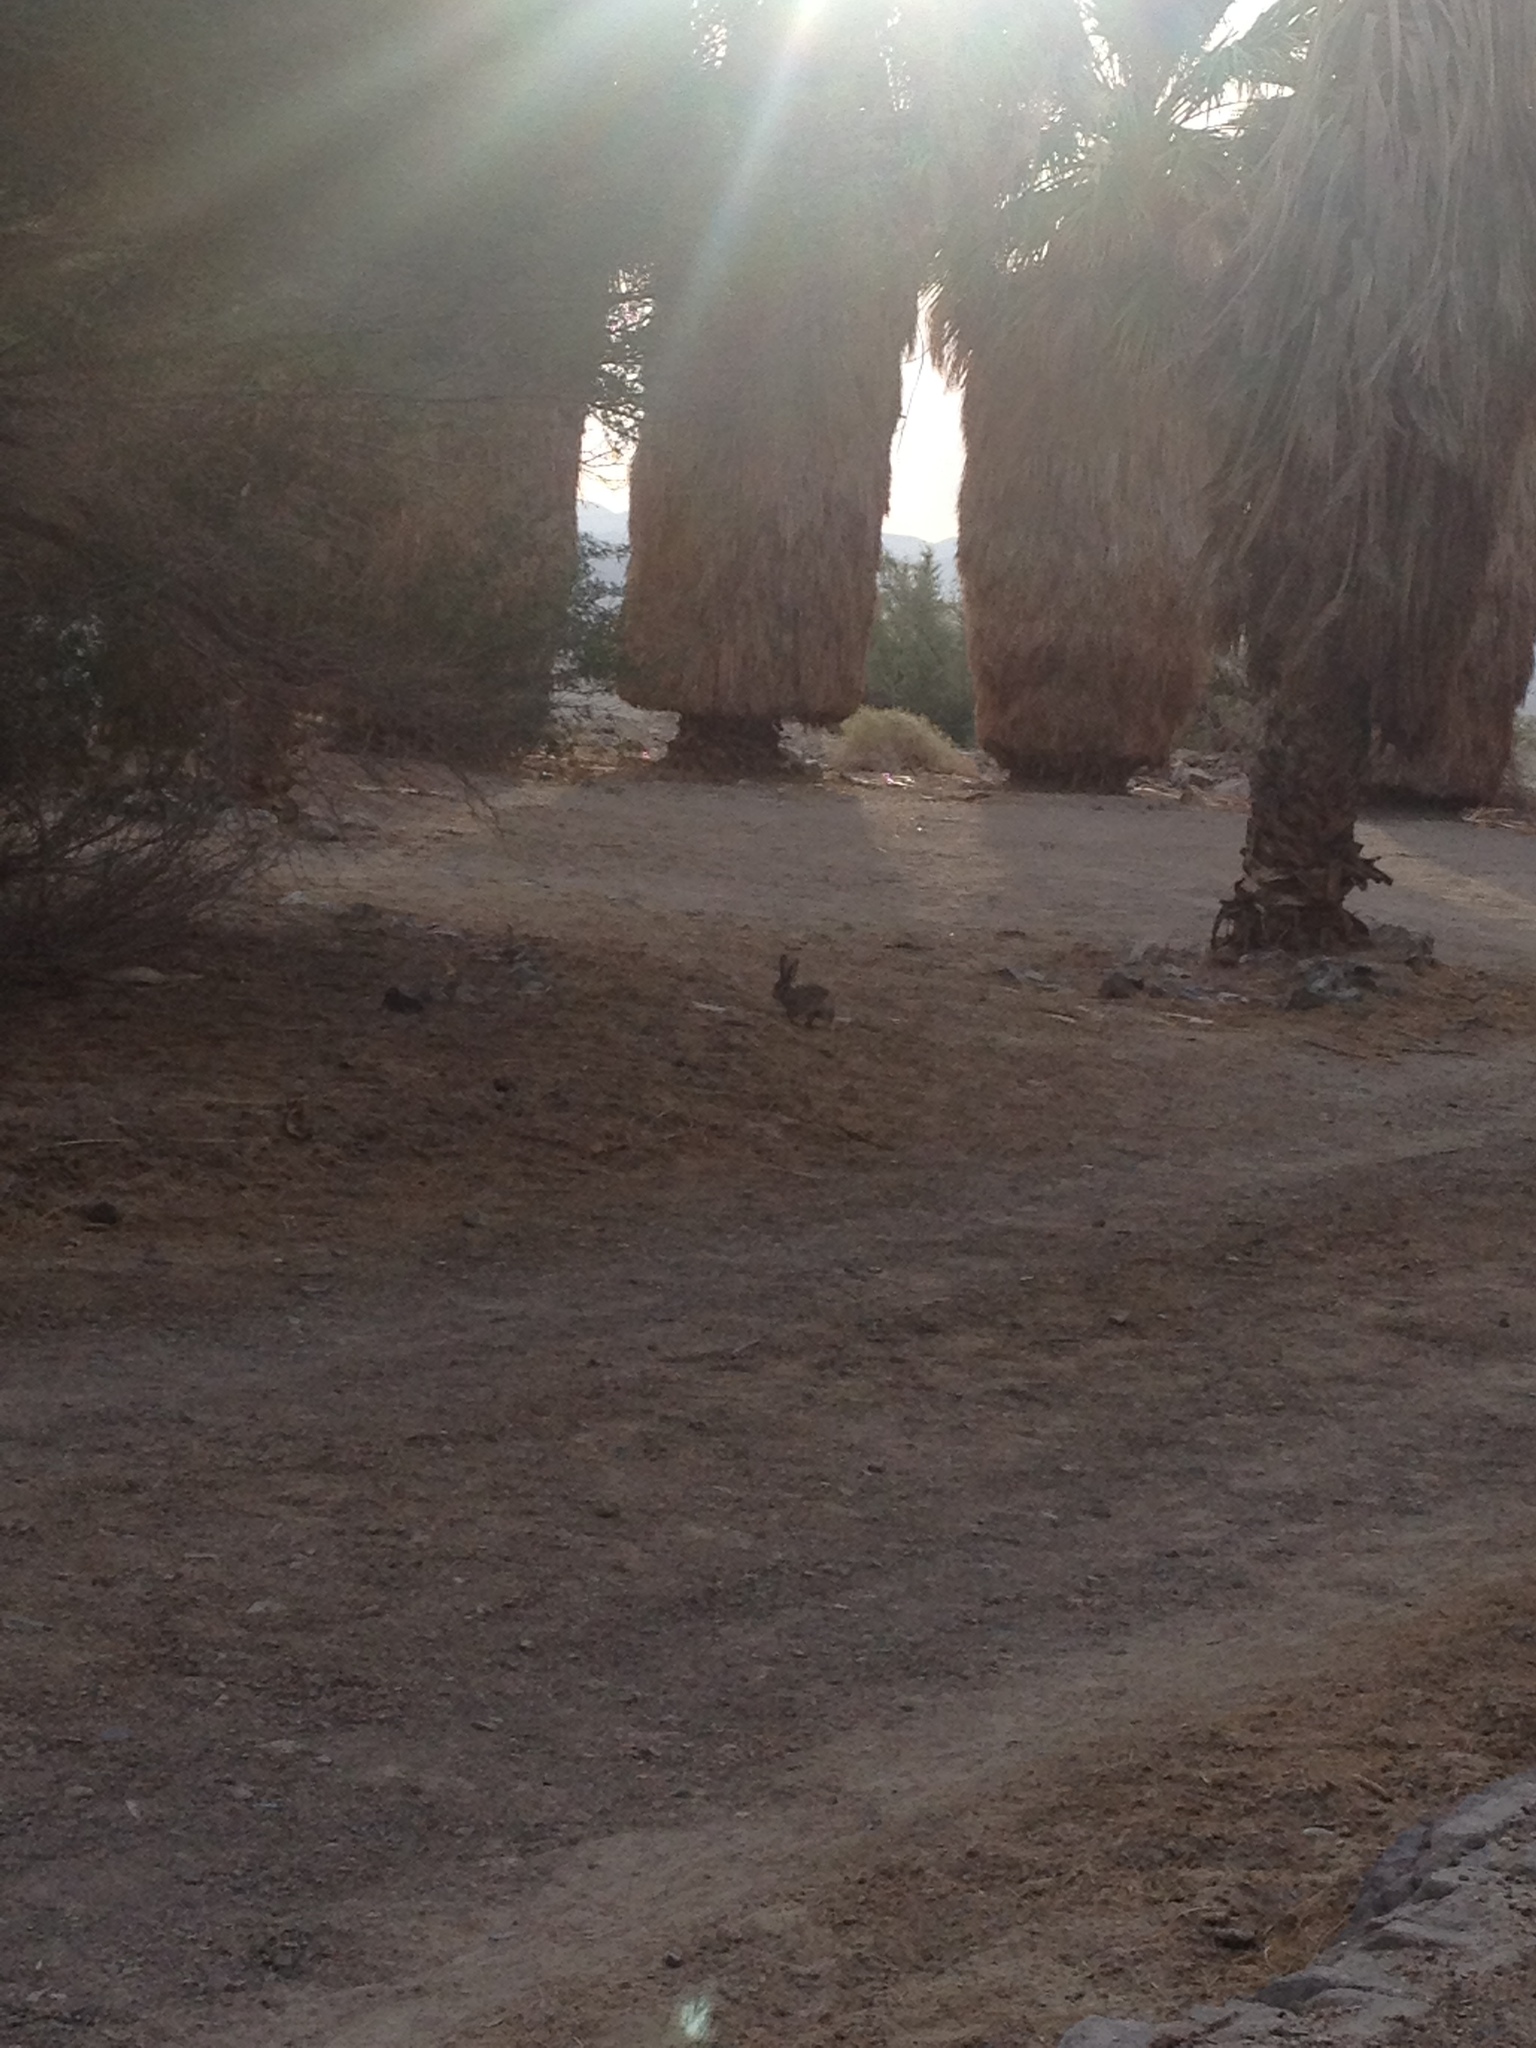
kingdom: Animalia
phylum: Chordata
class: Mammalia
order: Lagomorpha
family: Leporidae
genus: Sylvilagus
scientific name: Sylvilagus audubonii
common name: Desert cottontail
